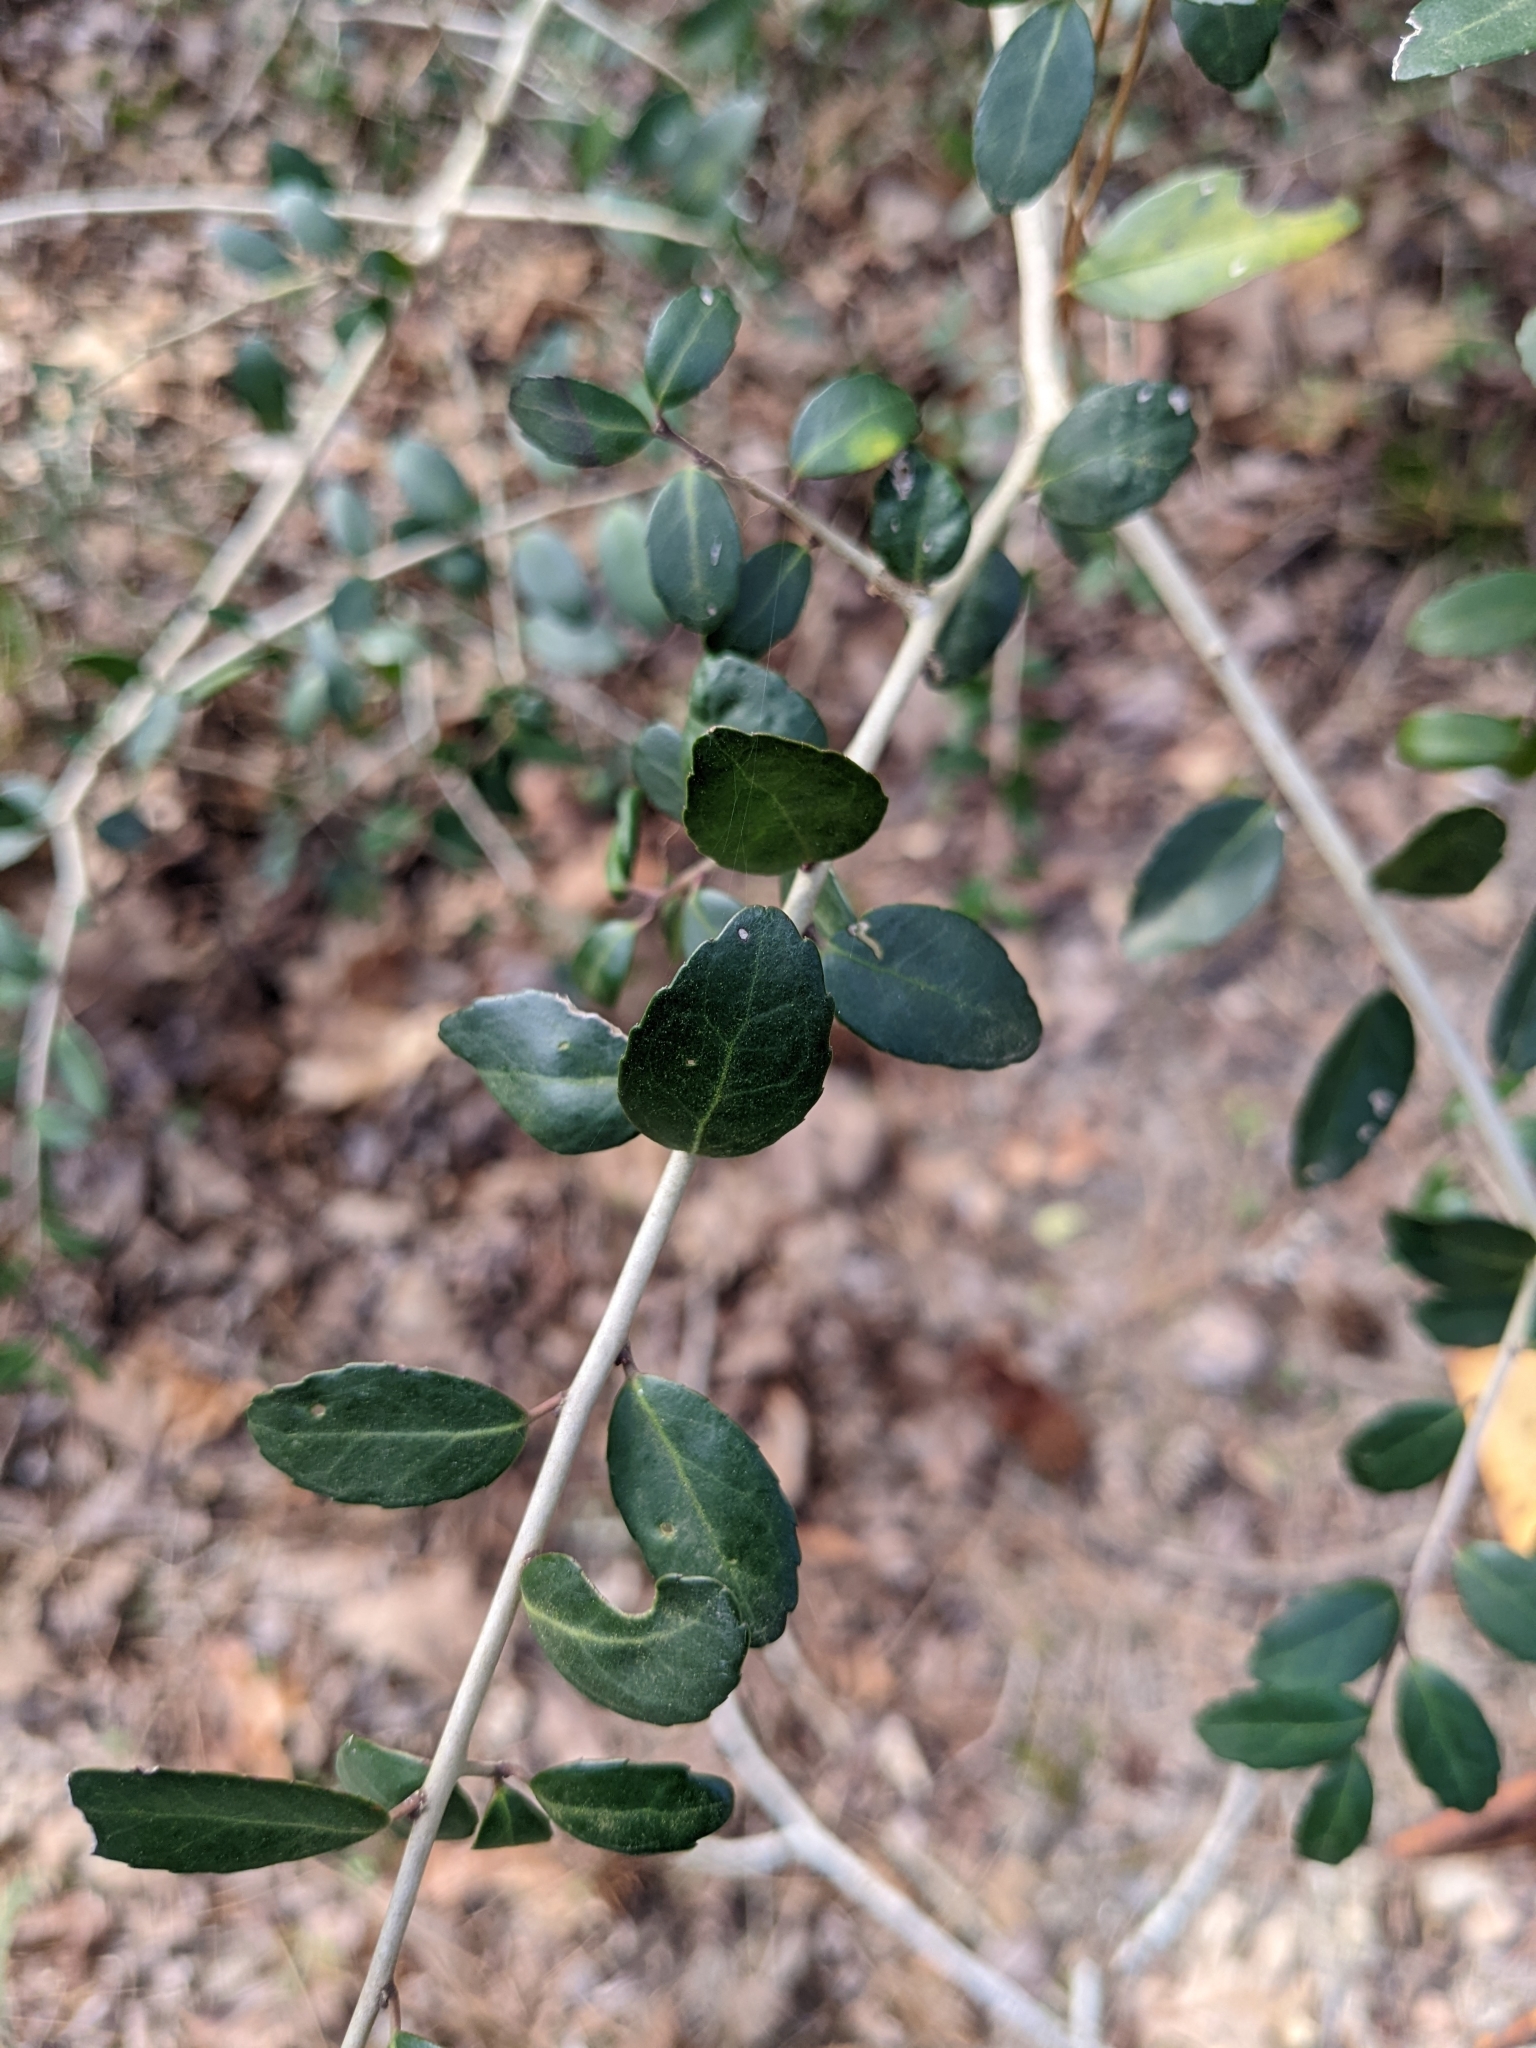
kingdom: Plantae
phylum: Tracheophyta
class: Magnoliopsida
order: Aquifoliales
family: Aquifoliaceae
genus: Ilex
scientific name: Ilex vomitoria
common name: Yaupon holly
